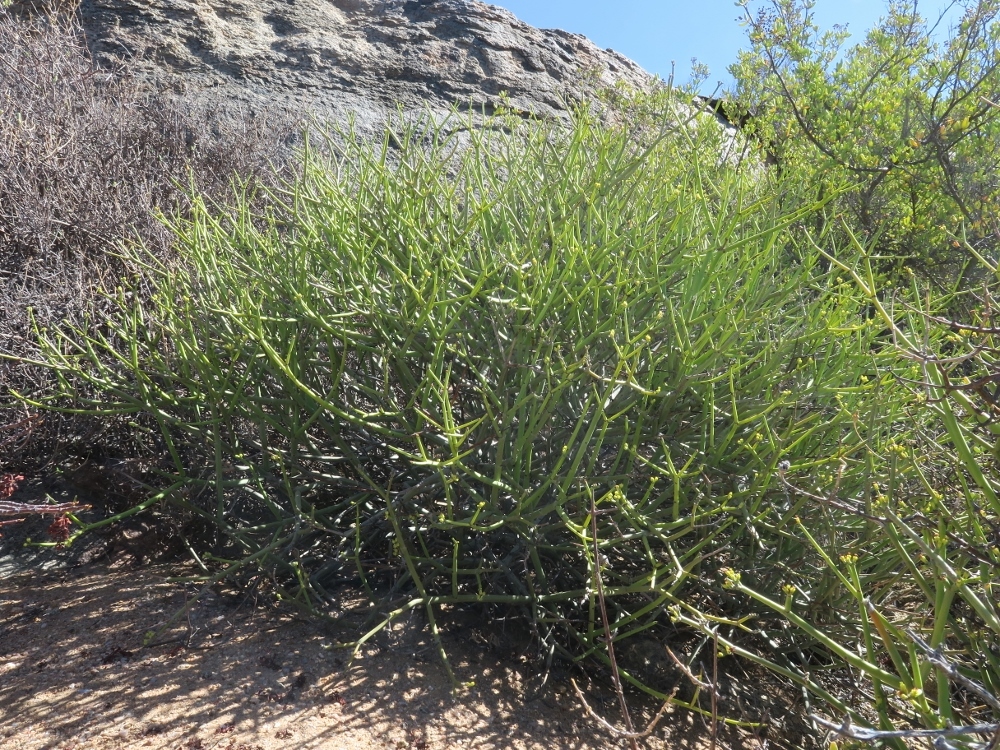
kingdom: Plantae
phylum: Tracheophyta
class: Magnoliopsida
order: Malpighiales
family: Euphorbiaceae
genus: Euphorbia
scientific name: Euphorbia rhombifolia
